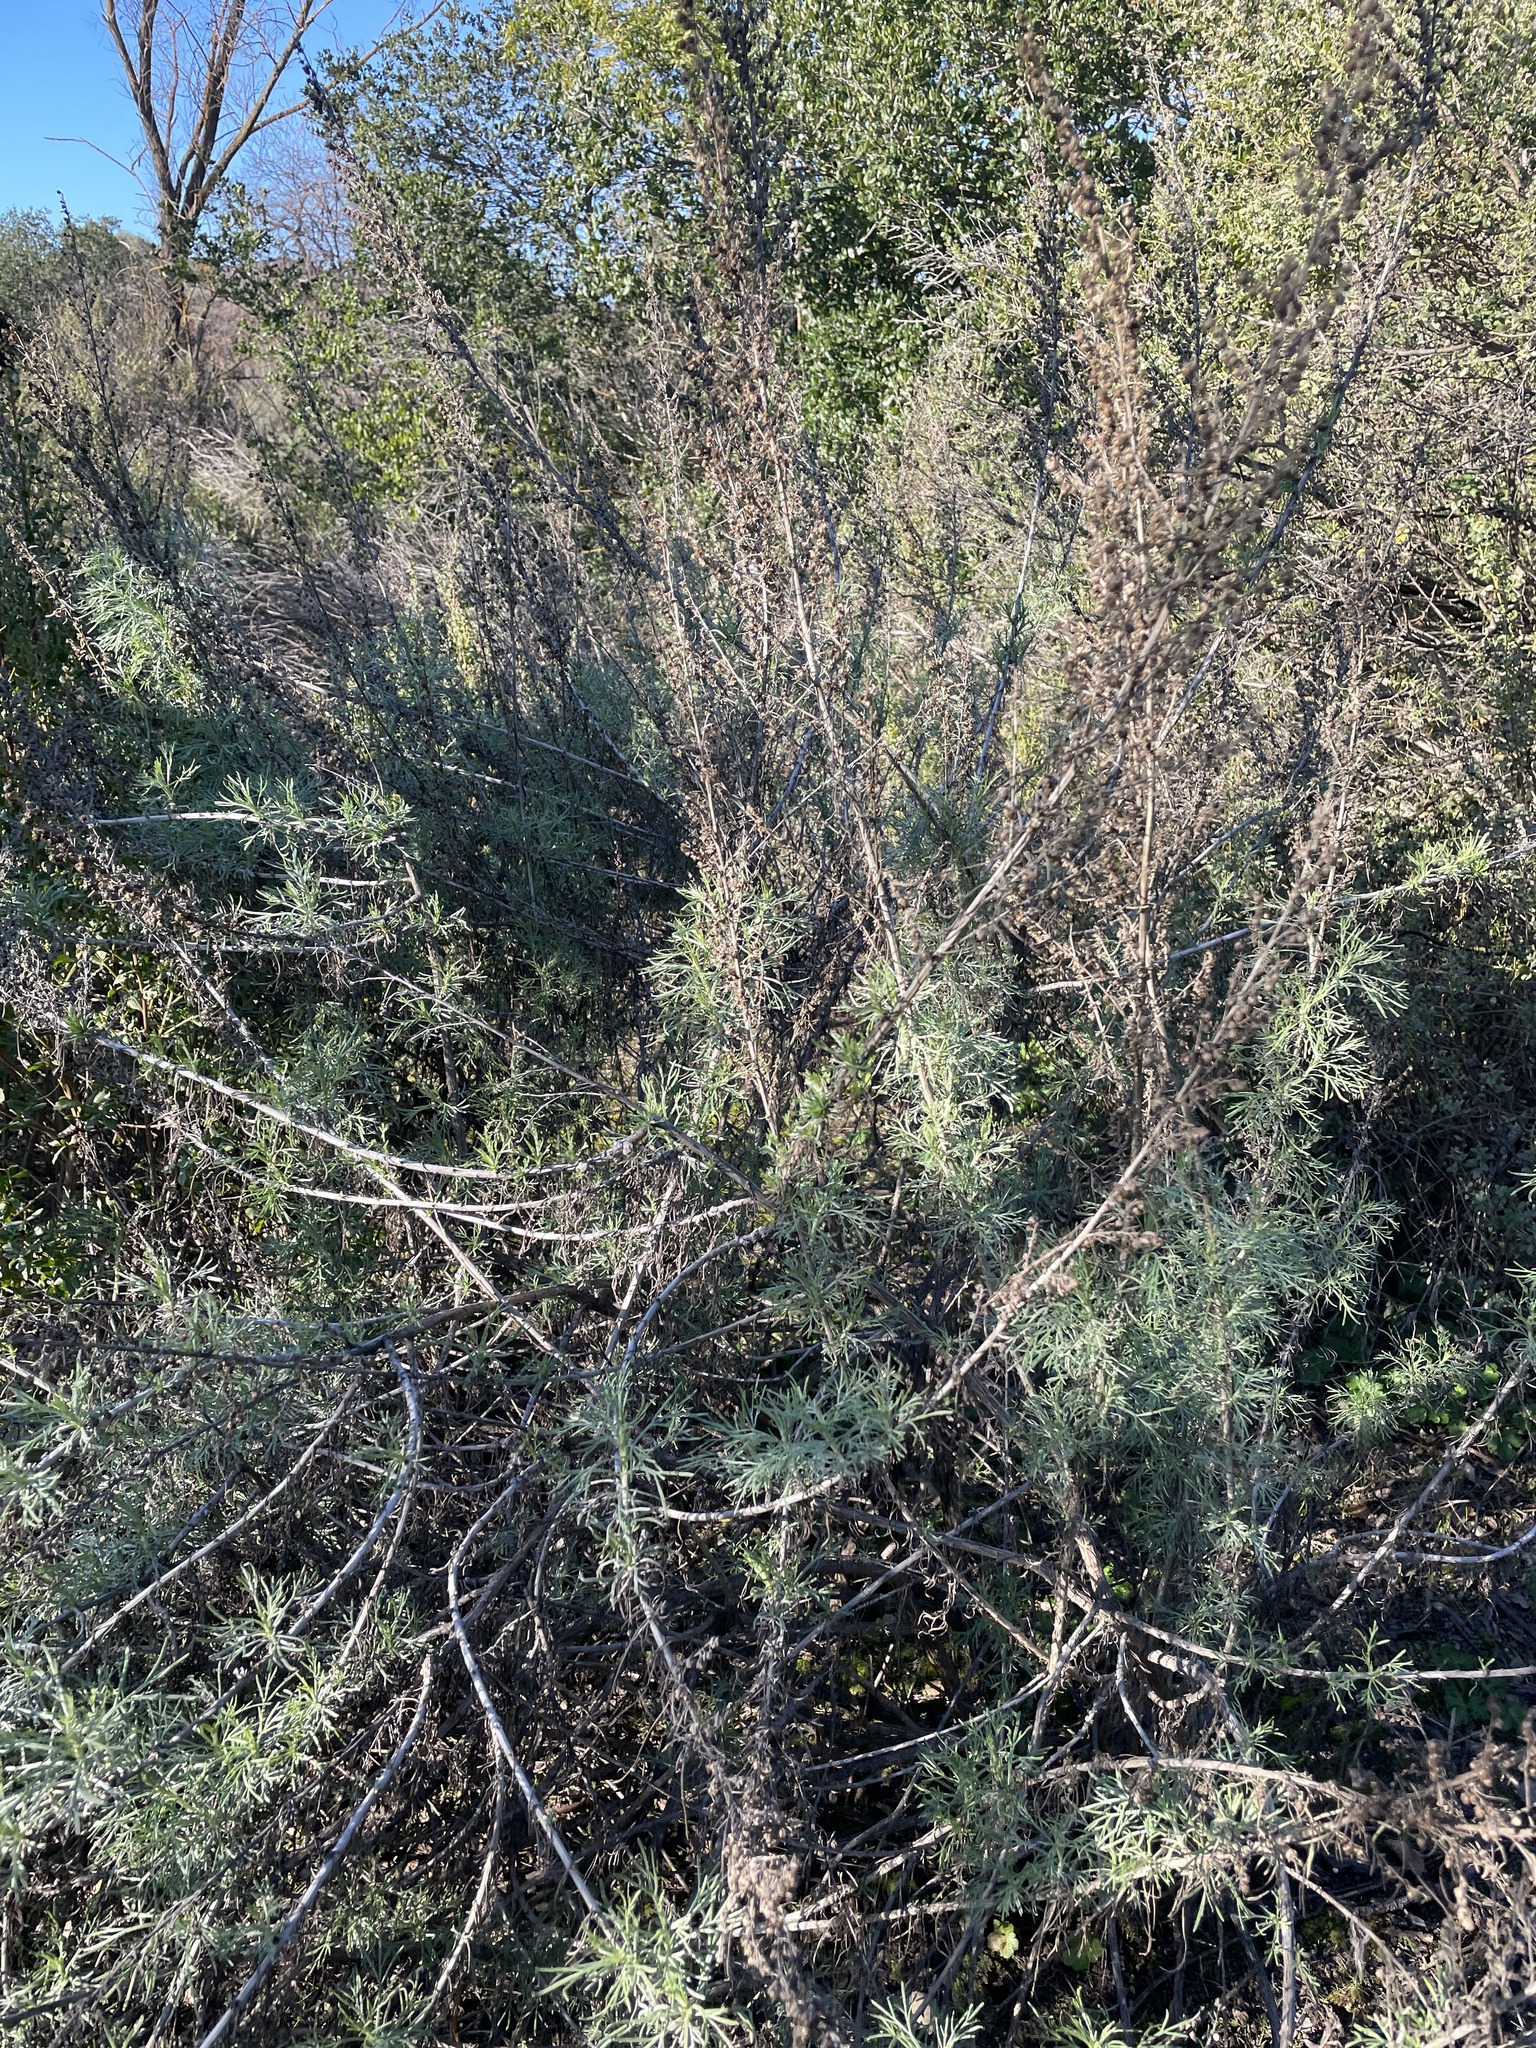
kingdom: Plantae
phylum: Tracheophyta
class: Magnoliopsida
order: Asterales
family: Asteraceae
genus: Artemisia
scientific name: Artemisia californica
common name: California sagebrush
